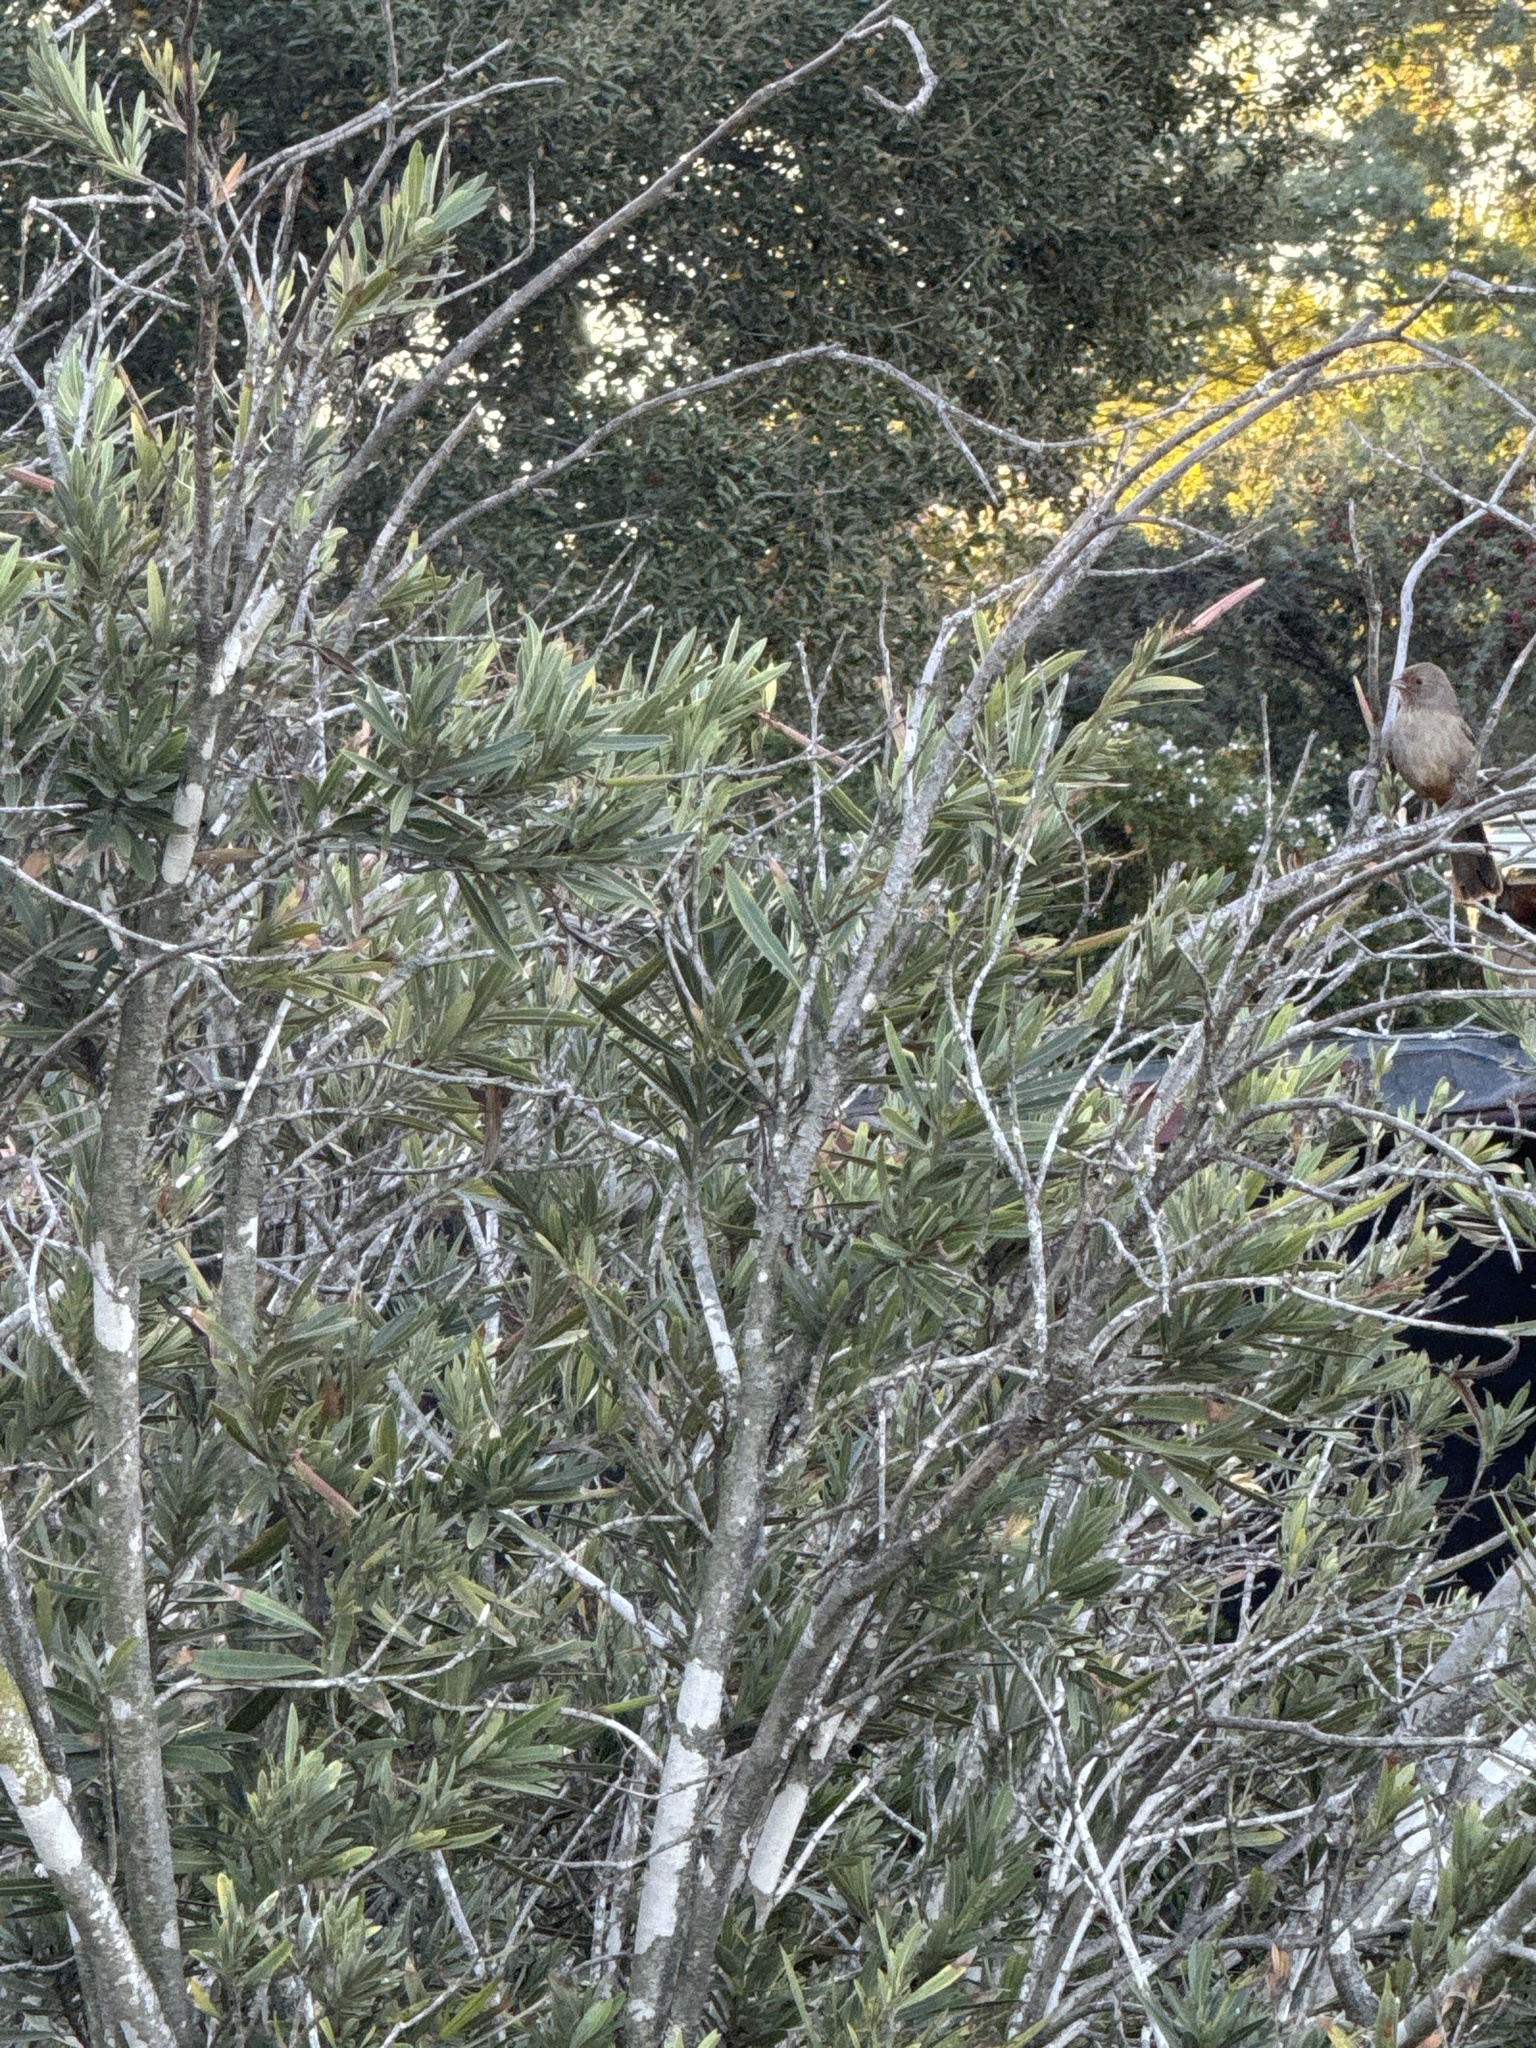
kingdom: Animalia
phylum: Chordata
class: Aves
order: Passeriformes
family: Passerellidae
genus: Melozone
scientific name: Melozone crissalis
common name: California towhee
